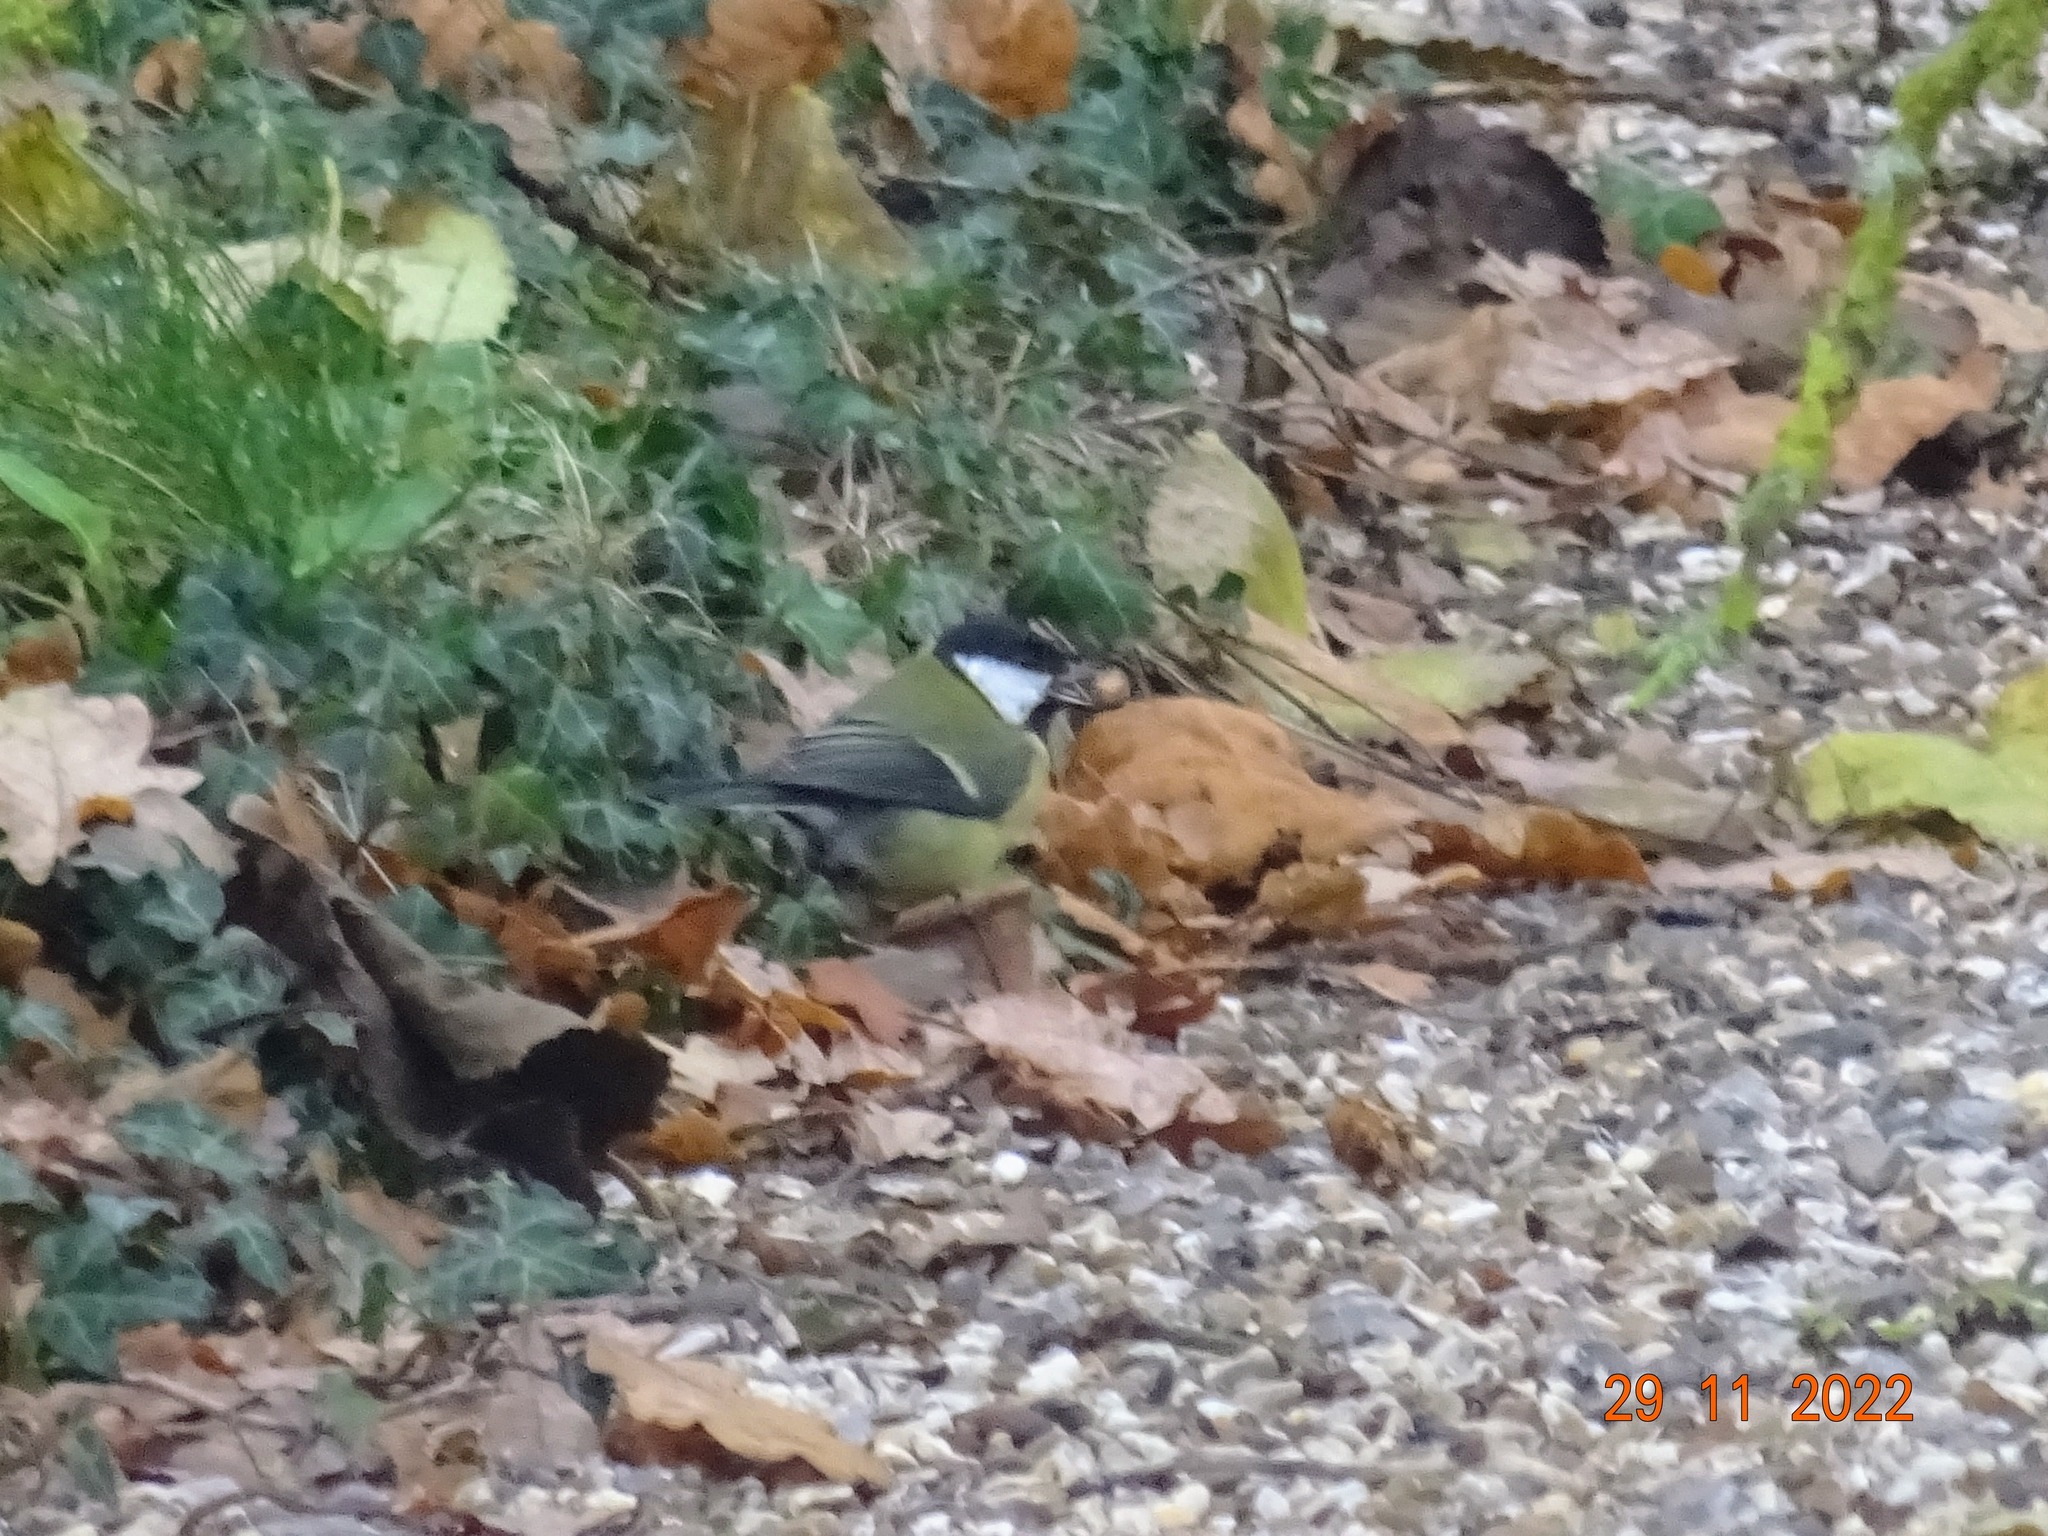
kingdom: Animalia
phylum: Chordata
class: Aves
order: Passeriformes
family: Paridae
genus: Parus
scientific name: Parus major
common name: Great tit
